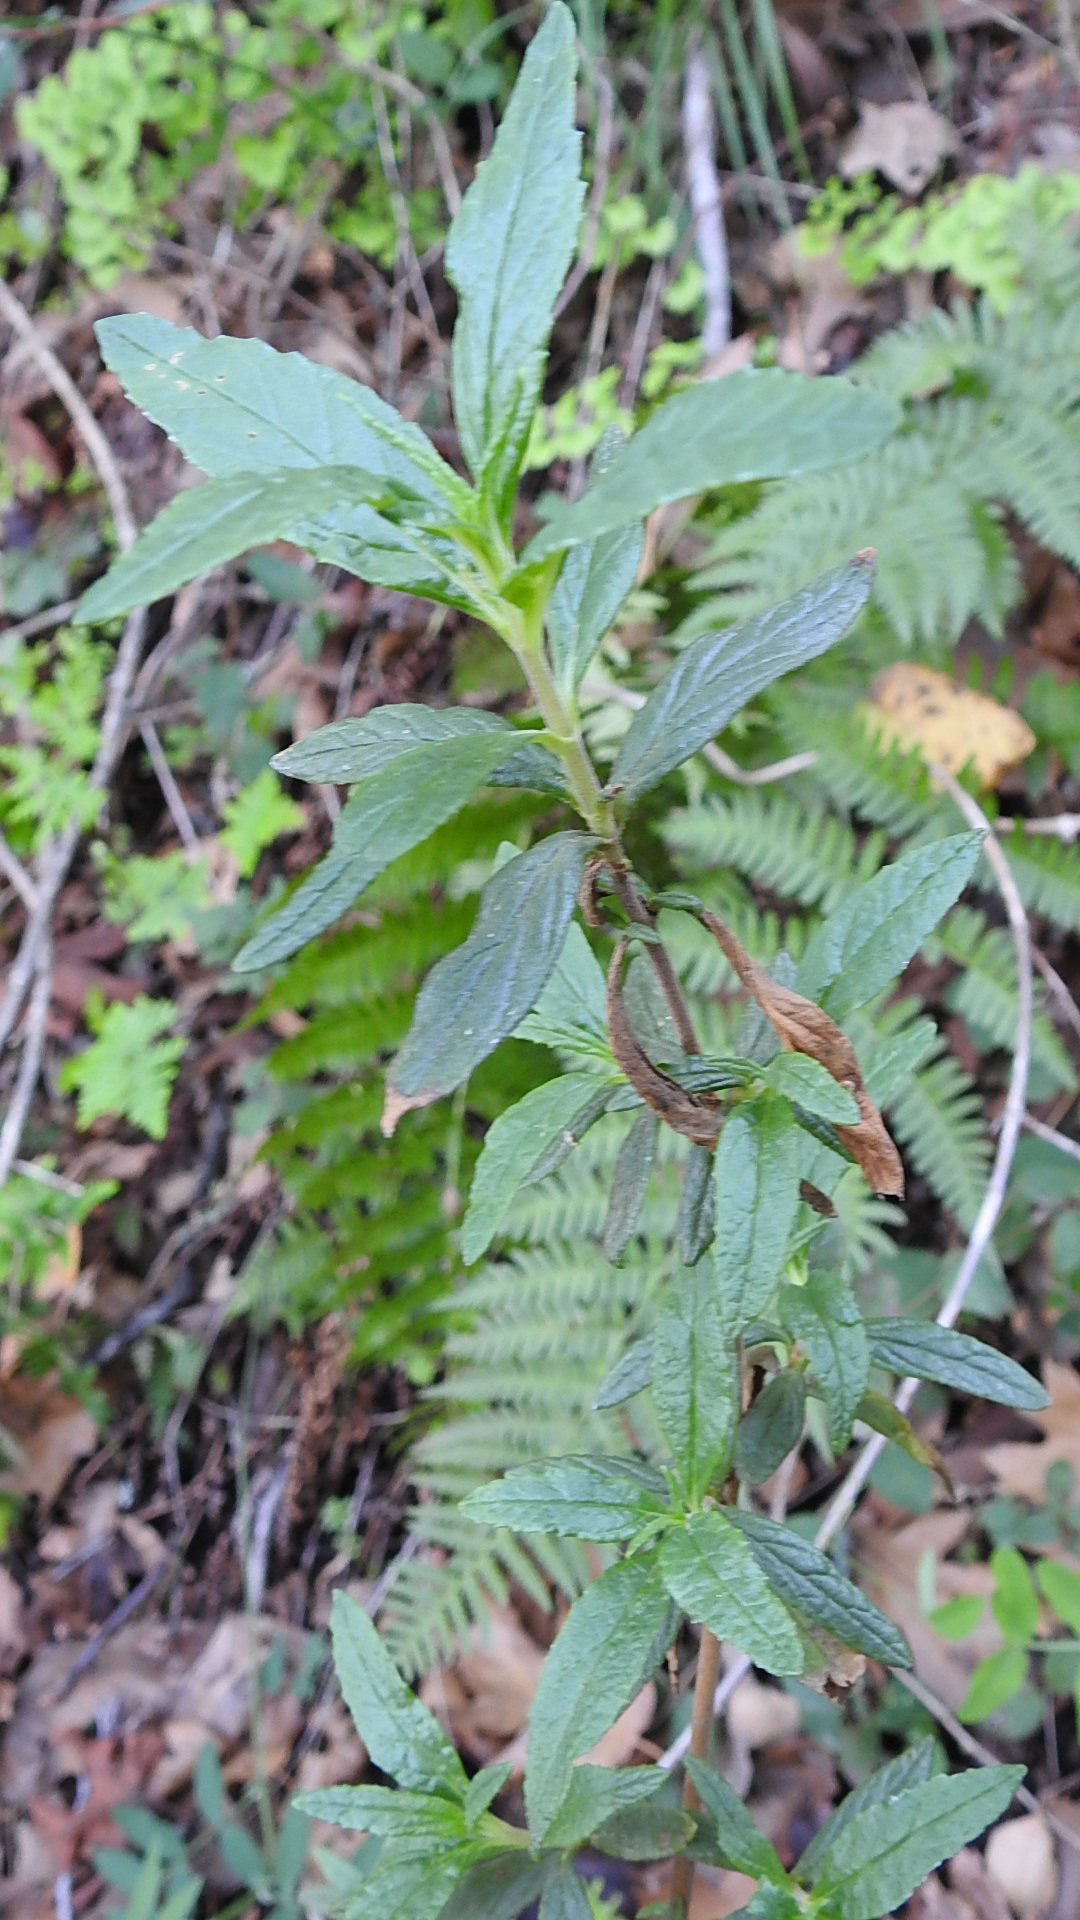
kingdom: Plantae
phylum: Tracheophyta
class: Magnoliopsida
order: Lamiales
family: Phrymaceae
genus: Diplacus
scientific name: Diplacus aurantiacus
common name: Bush monkey-flower
